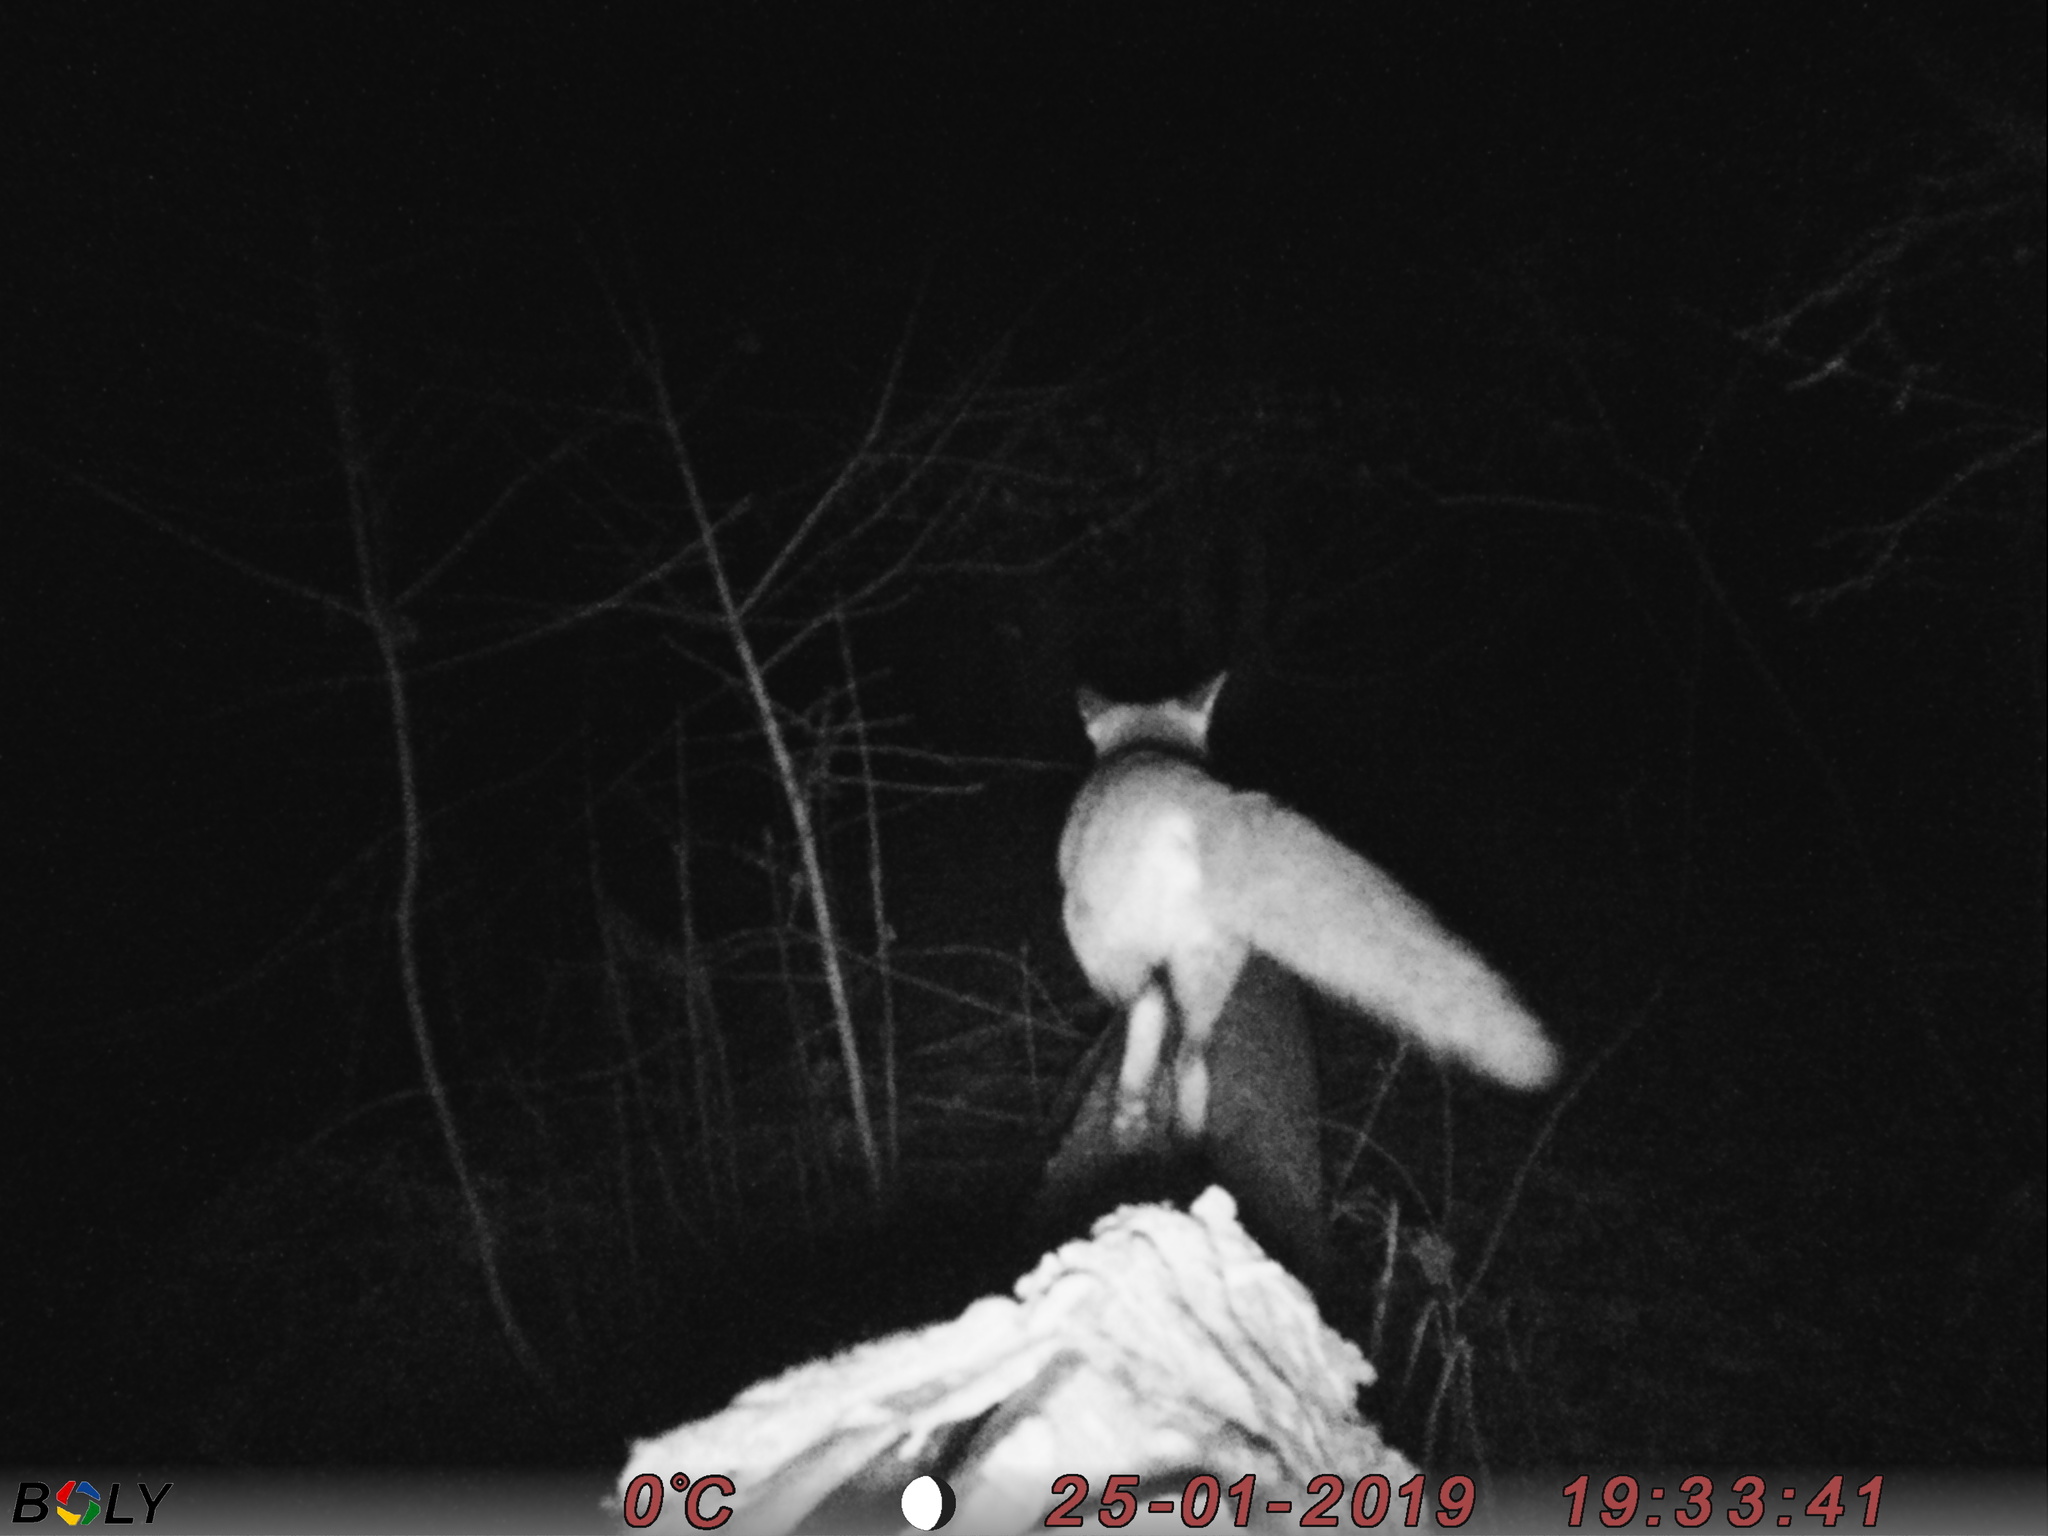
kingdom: Animalia
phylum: Chordata
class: Mammalia
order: Carnivora
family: Canidae
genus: Vulpes
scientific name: Vulpes vulpes
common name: Red fox
